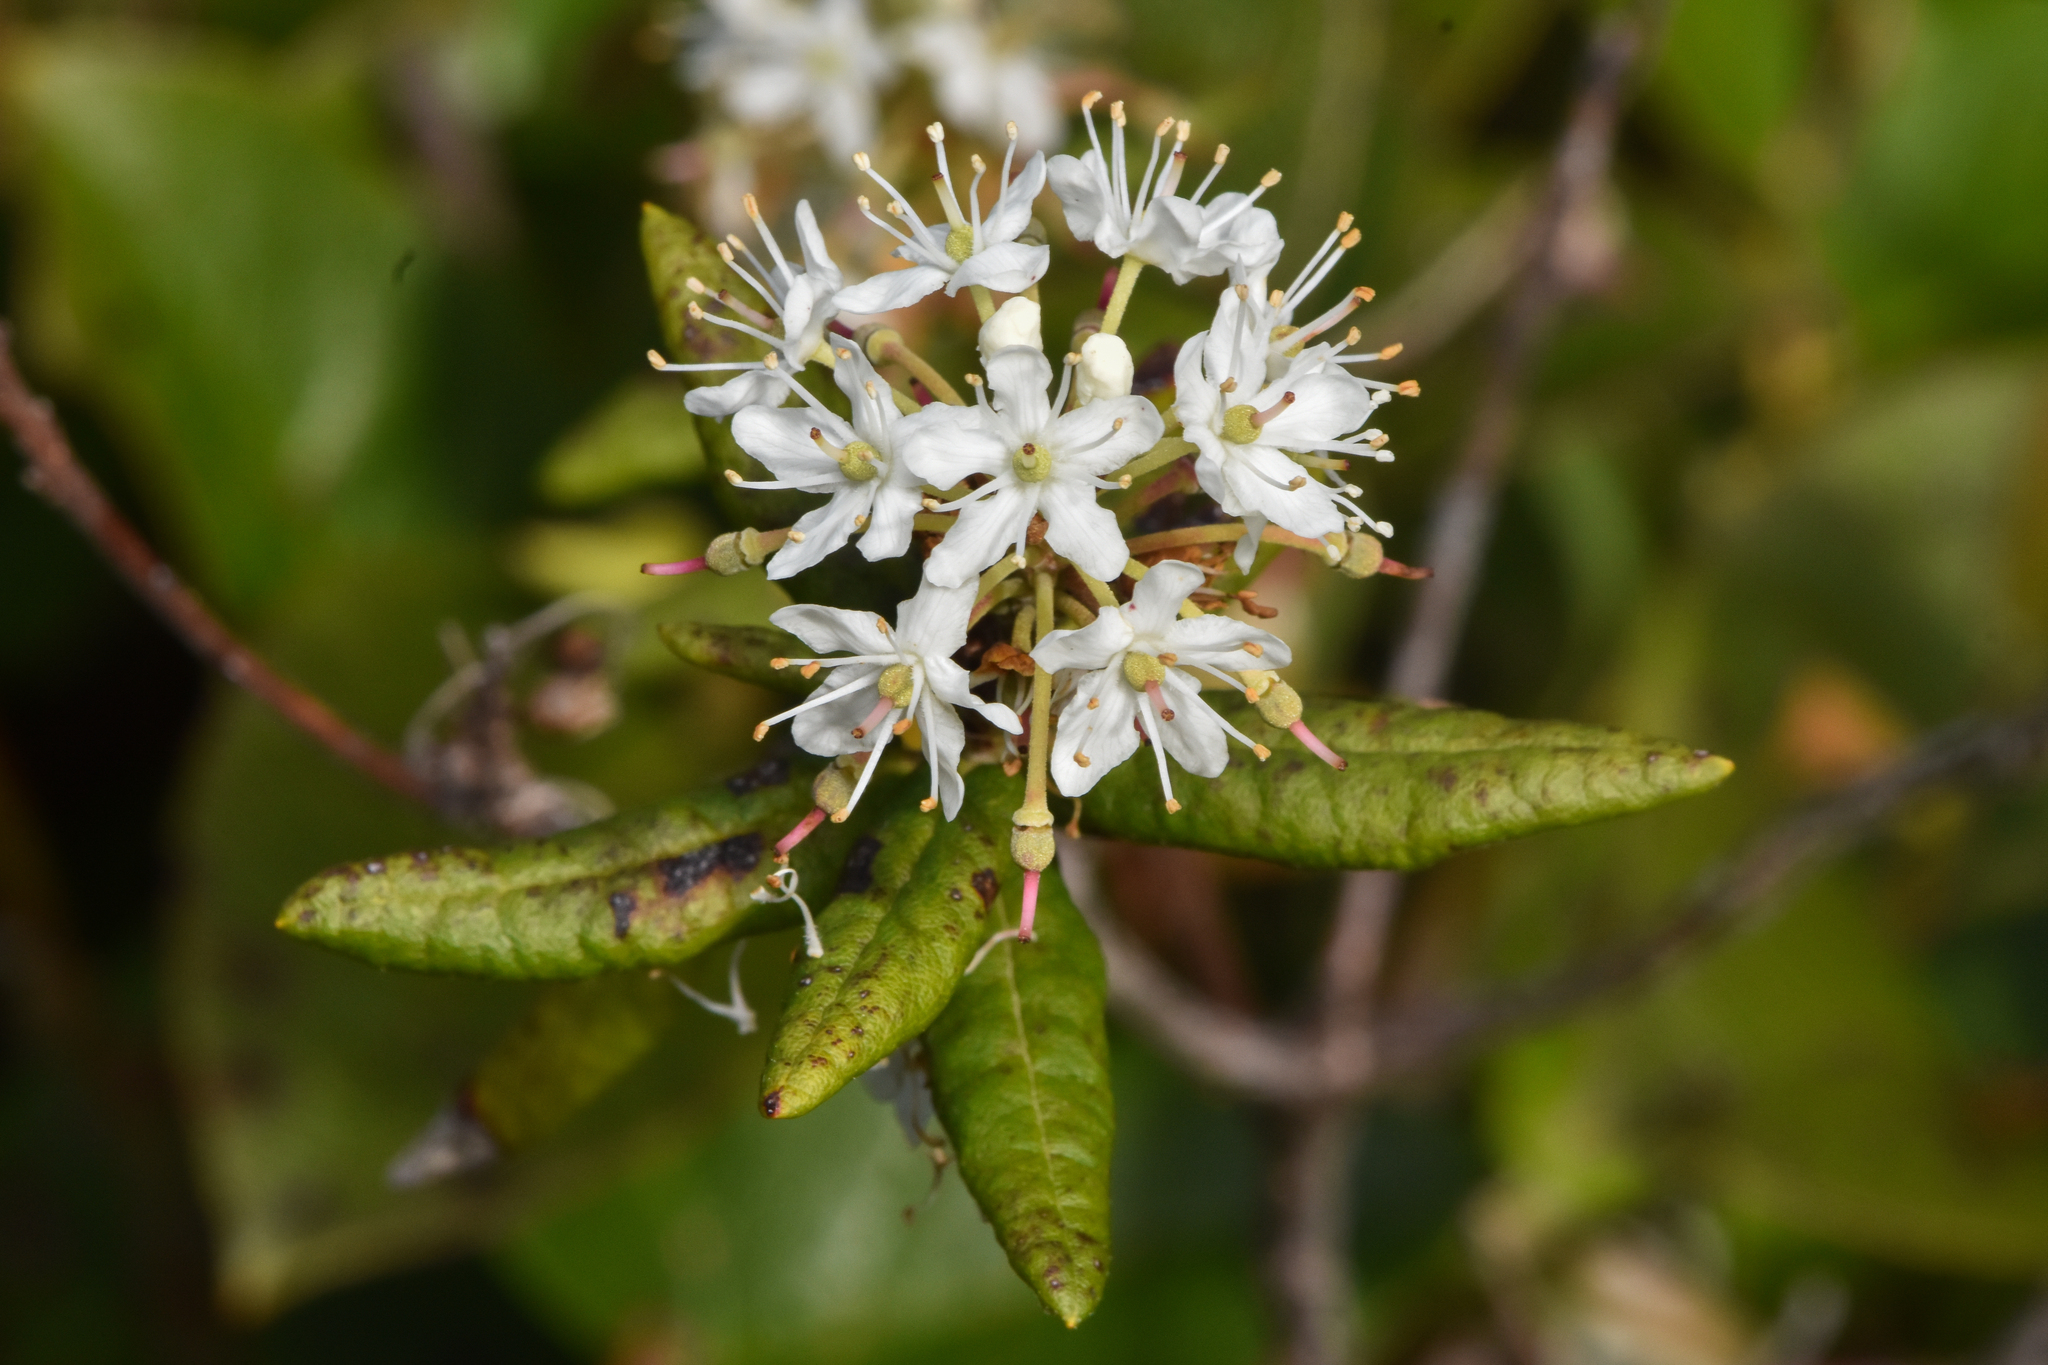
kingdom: Plantae
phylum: Tracheophyta
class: Magnoliopsida
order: Ericales
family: Ericaceae
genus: Rhododendron
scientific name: Rhododendron groenlandicum
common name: Bog labrador tea
